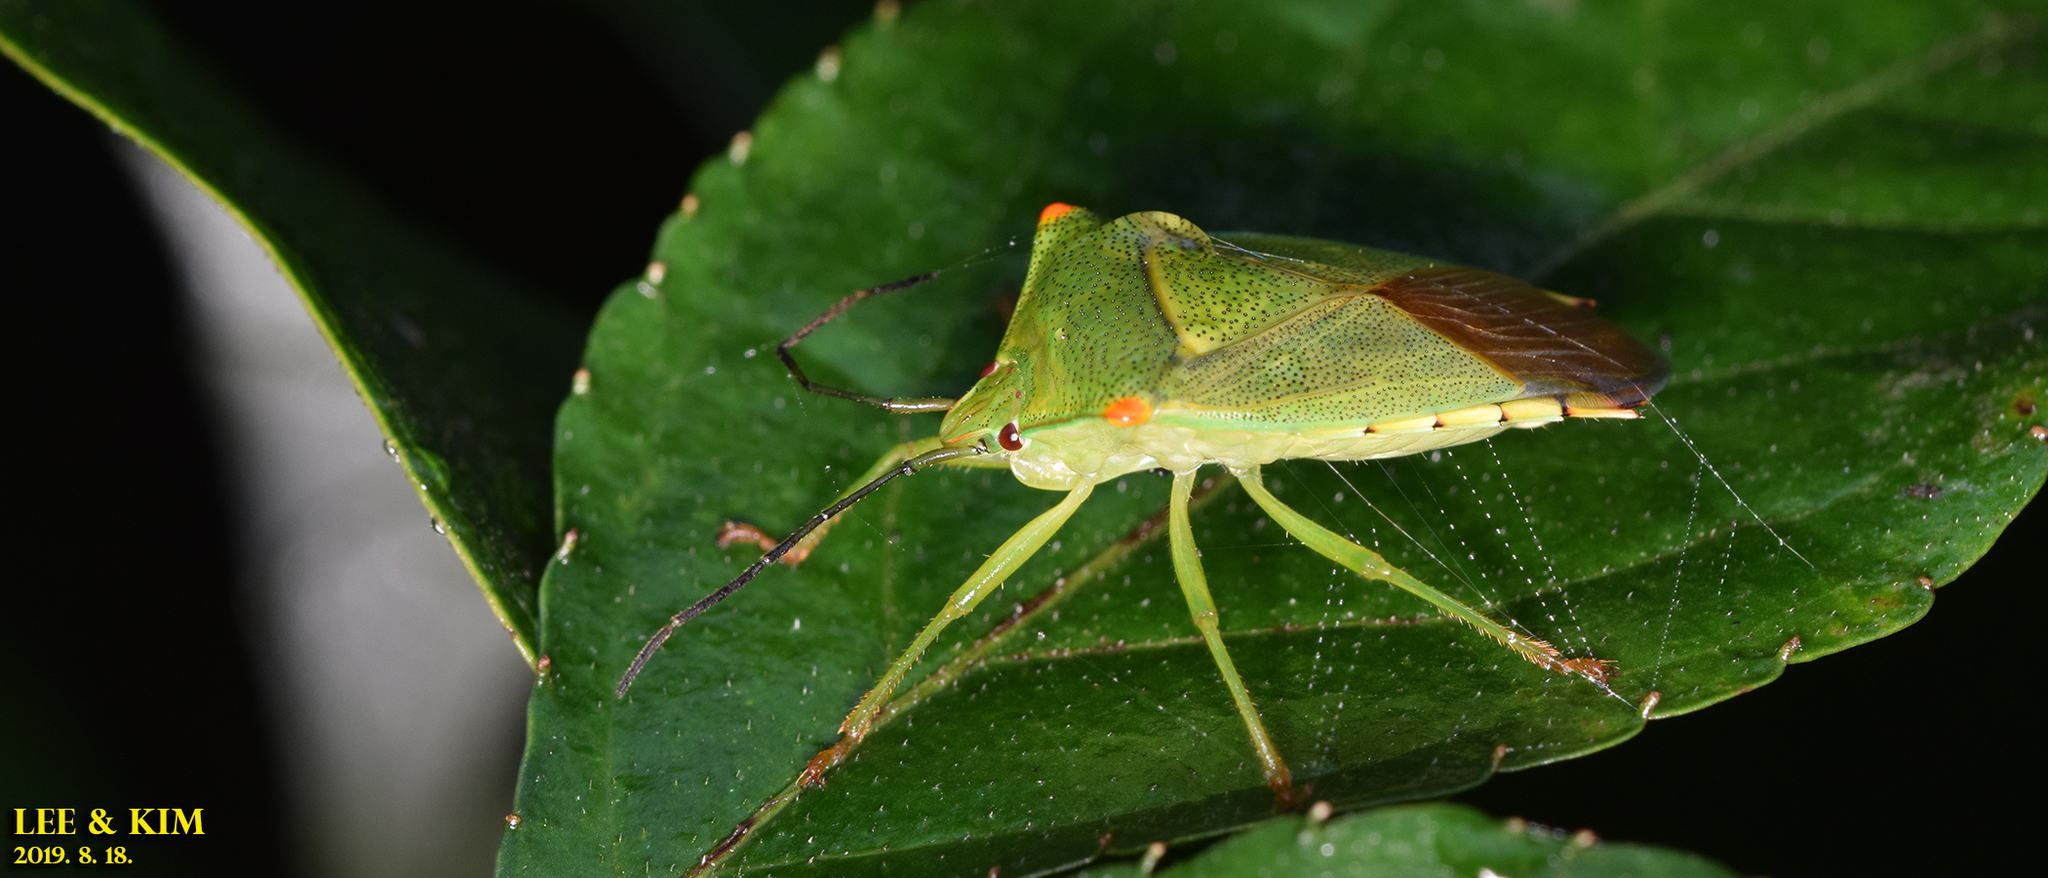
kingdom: Animalia
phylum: Arthropoda
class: Insecta
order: Hemiptera
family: Acanthosomatidae
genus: Acanthosoma
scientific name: Acanthosoma labiduroides
